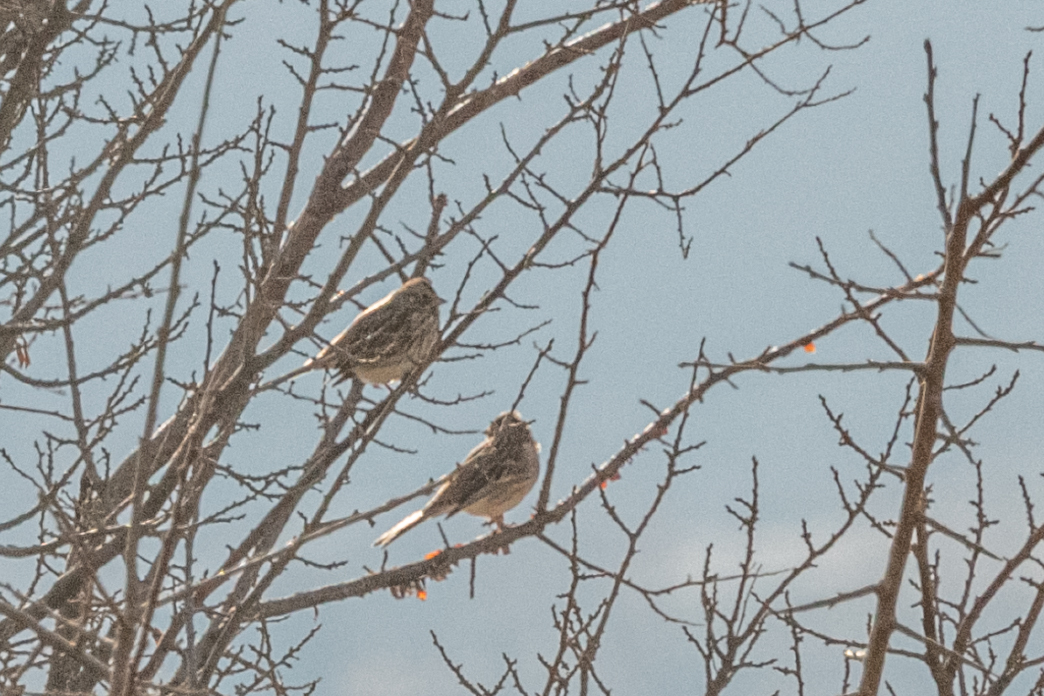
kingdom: Animalia
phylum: Chordata
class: Aves
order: Passeriformes
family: Emberizidae
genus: Emberiza
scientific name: Emberiza leucocephalos
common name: Pine bunting
